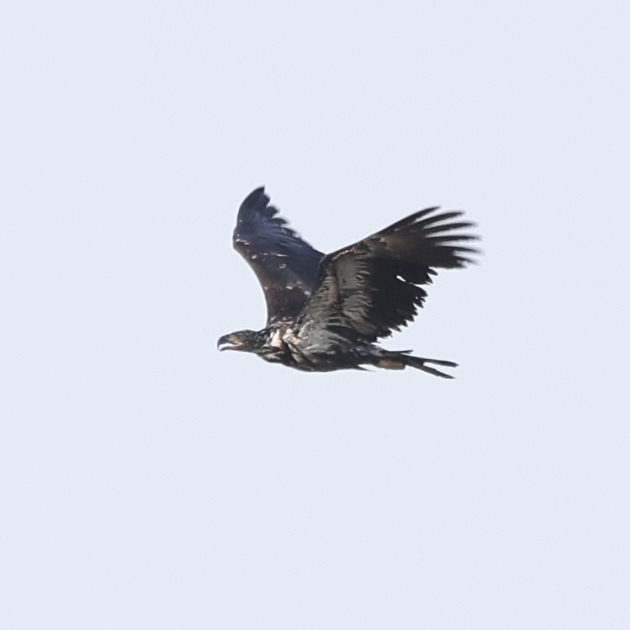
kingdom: Animalia
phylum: Chordata
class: Aves
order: Accipitriformes
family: Accipitridae
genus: Haliaeetus
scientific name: Haliaeetus leucocephalus
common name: Bald eagle
